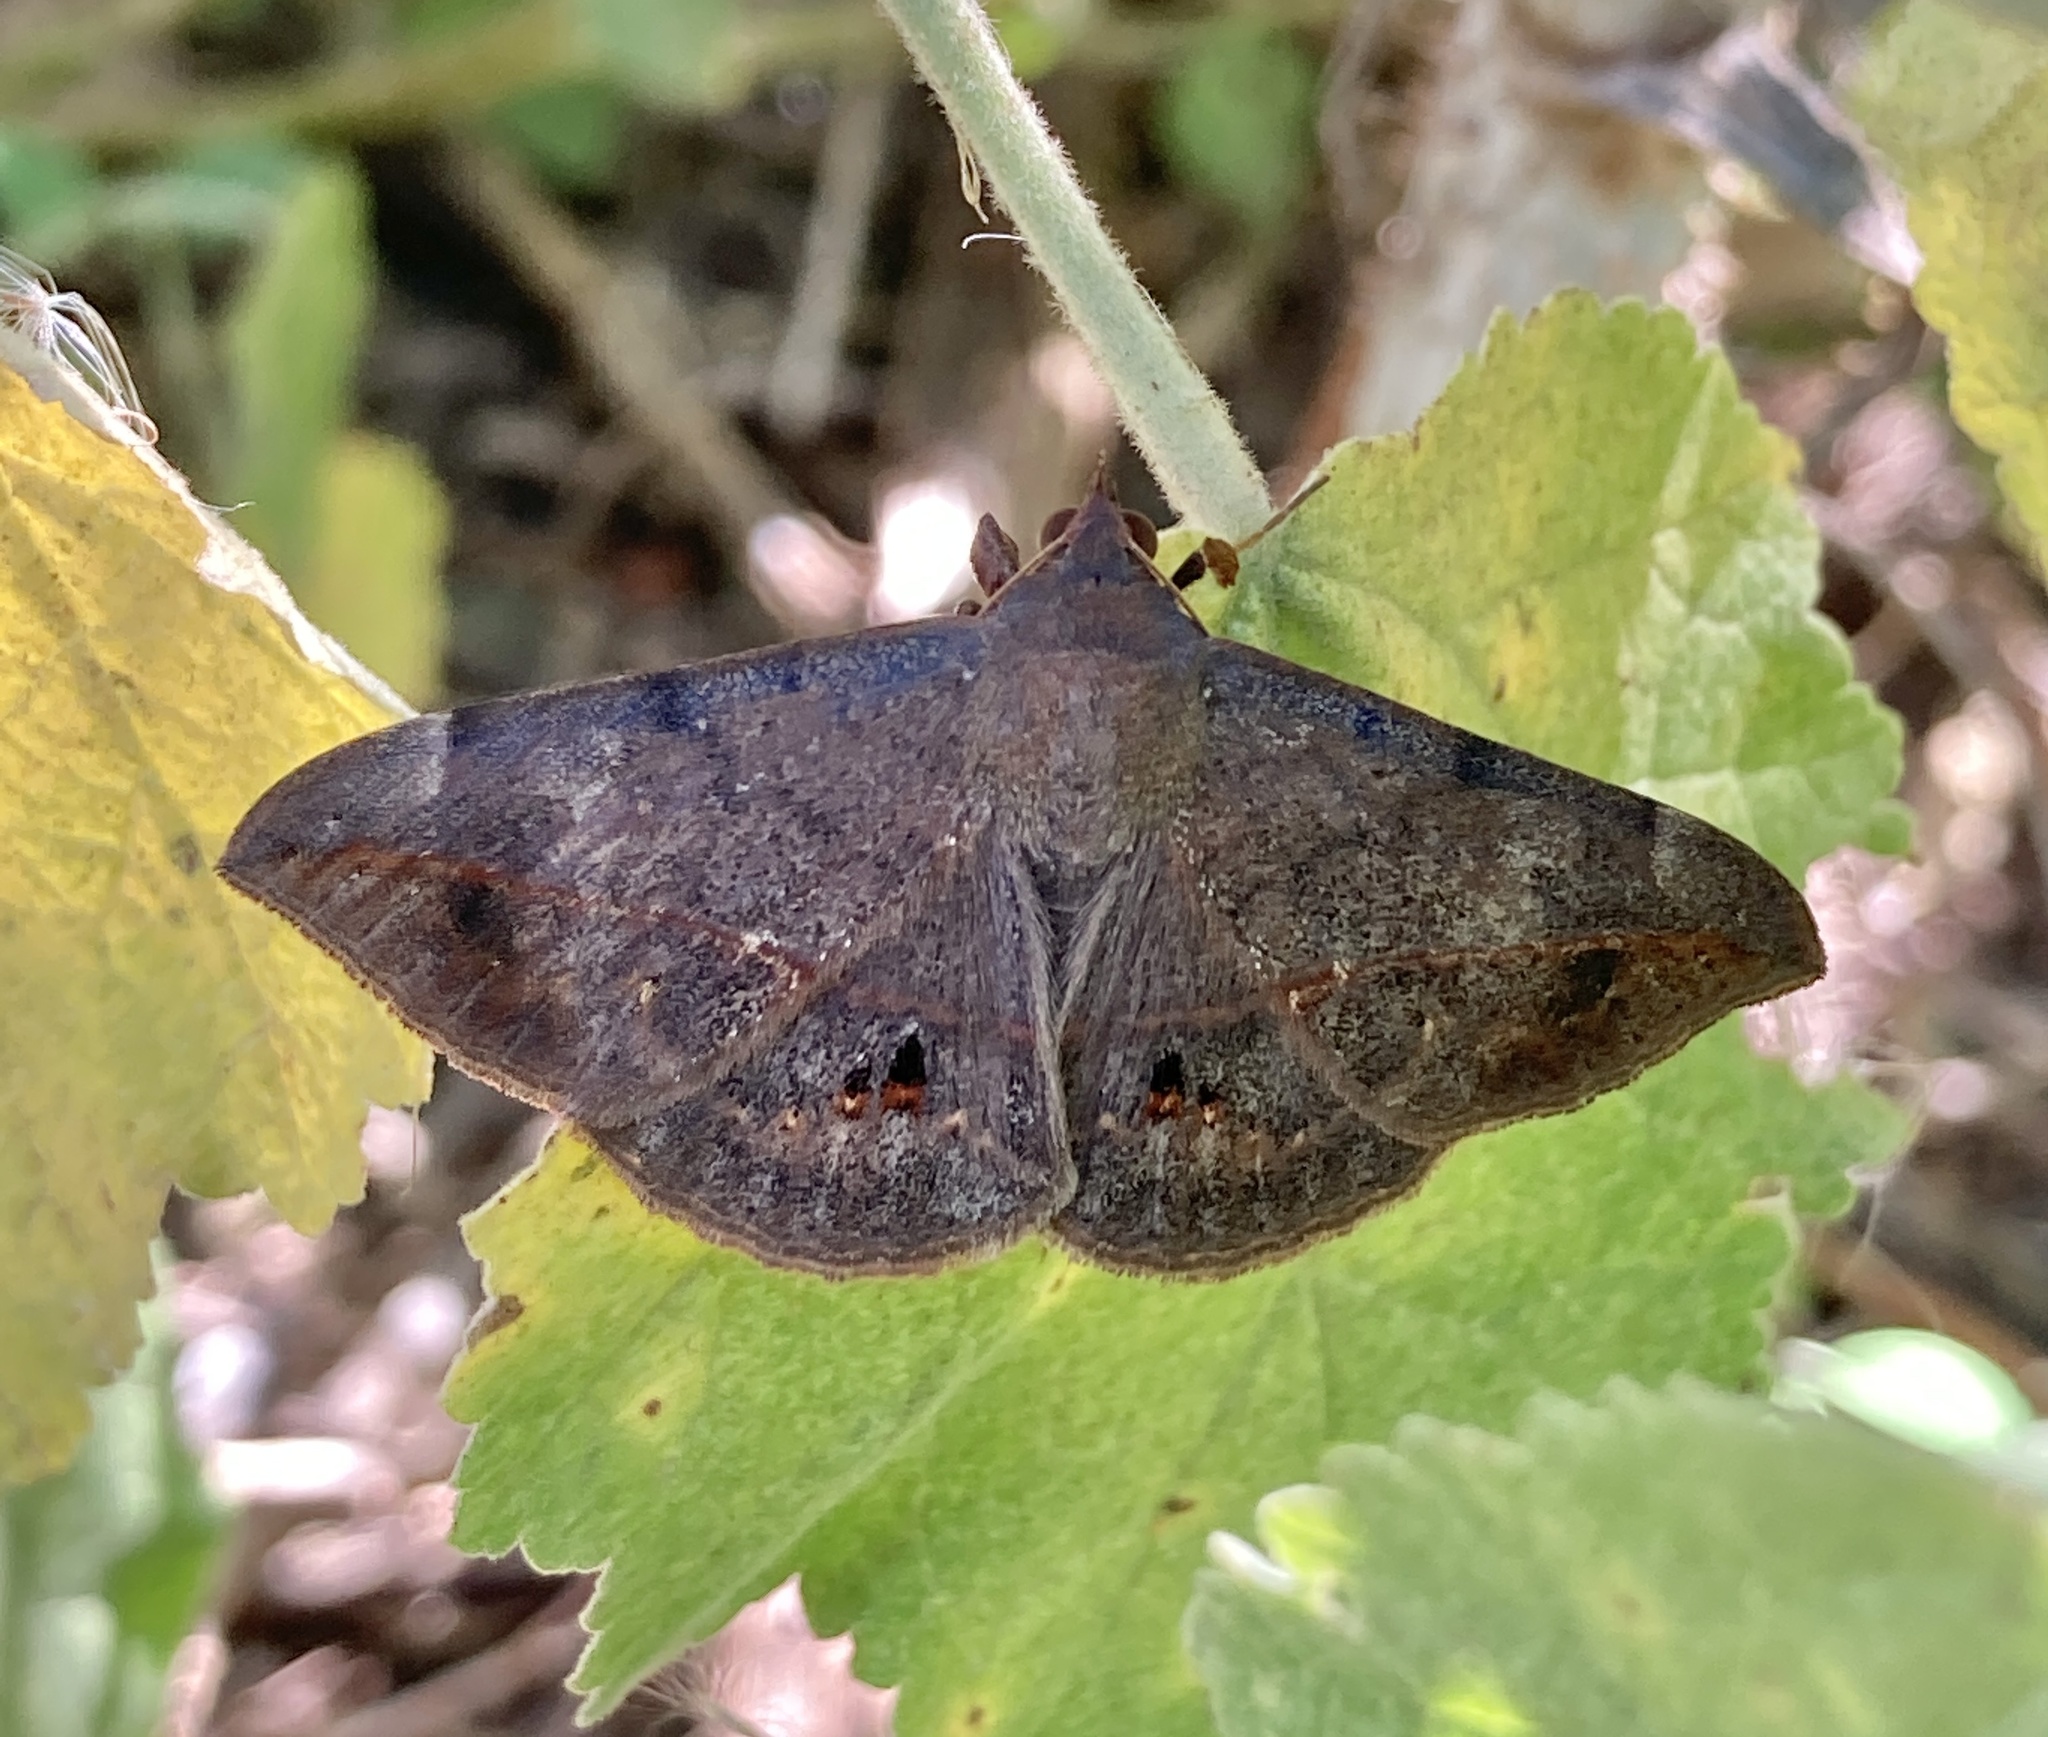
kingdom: Animalia
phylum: Arthropoda
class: Insecta
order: Lepidoptera
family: Erebidae
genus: Anticarsia
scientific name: Anticarsia gemmatalis
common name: Cutworm moth
